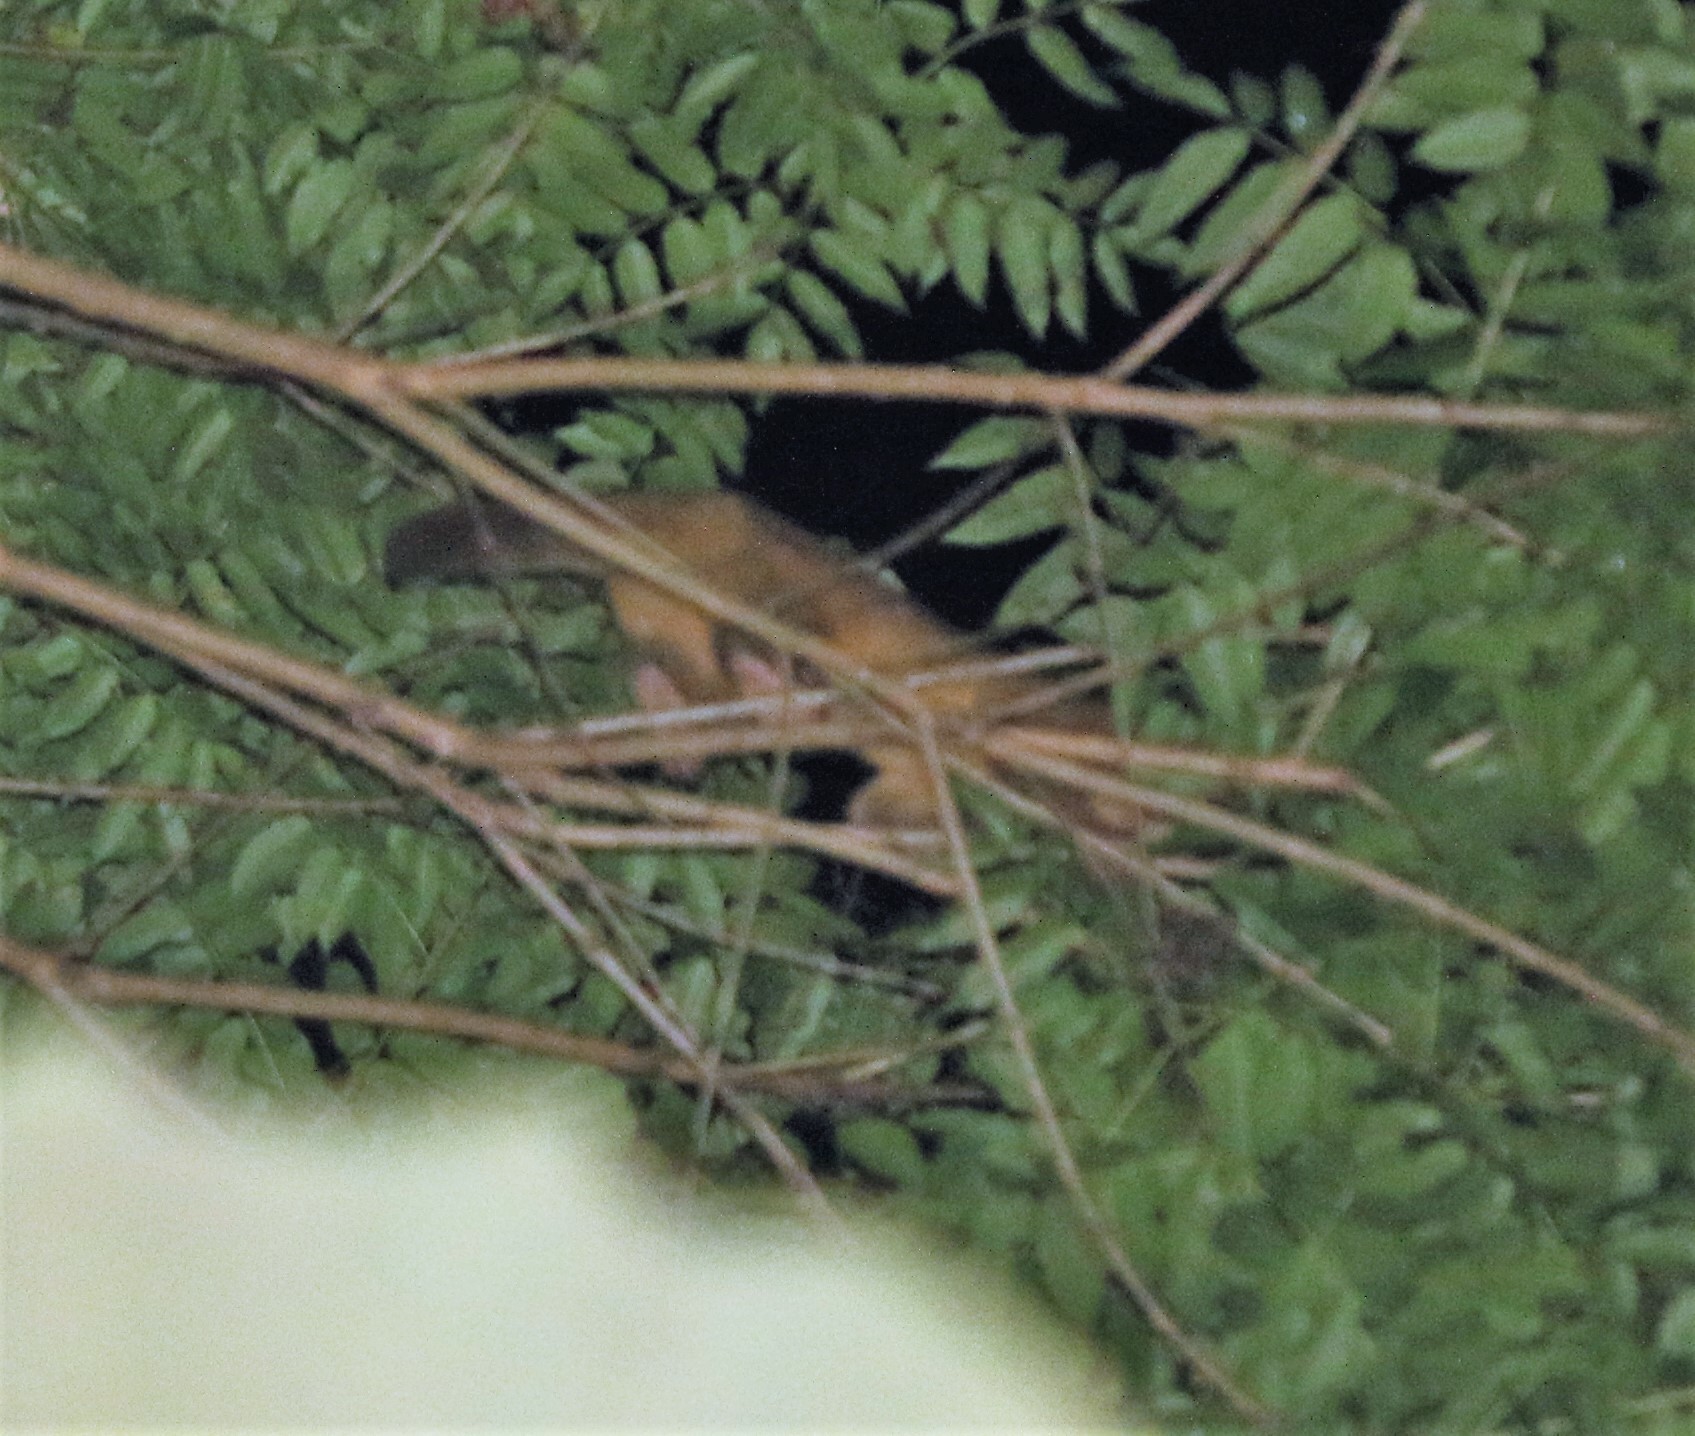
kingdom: Animalia
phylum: Chordata
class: Mammalia
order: Carnivora
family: Procyonidae
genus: Potos
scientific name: Potos flavus
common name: Kinkajou
